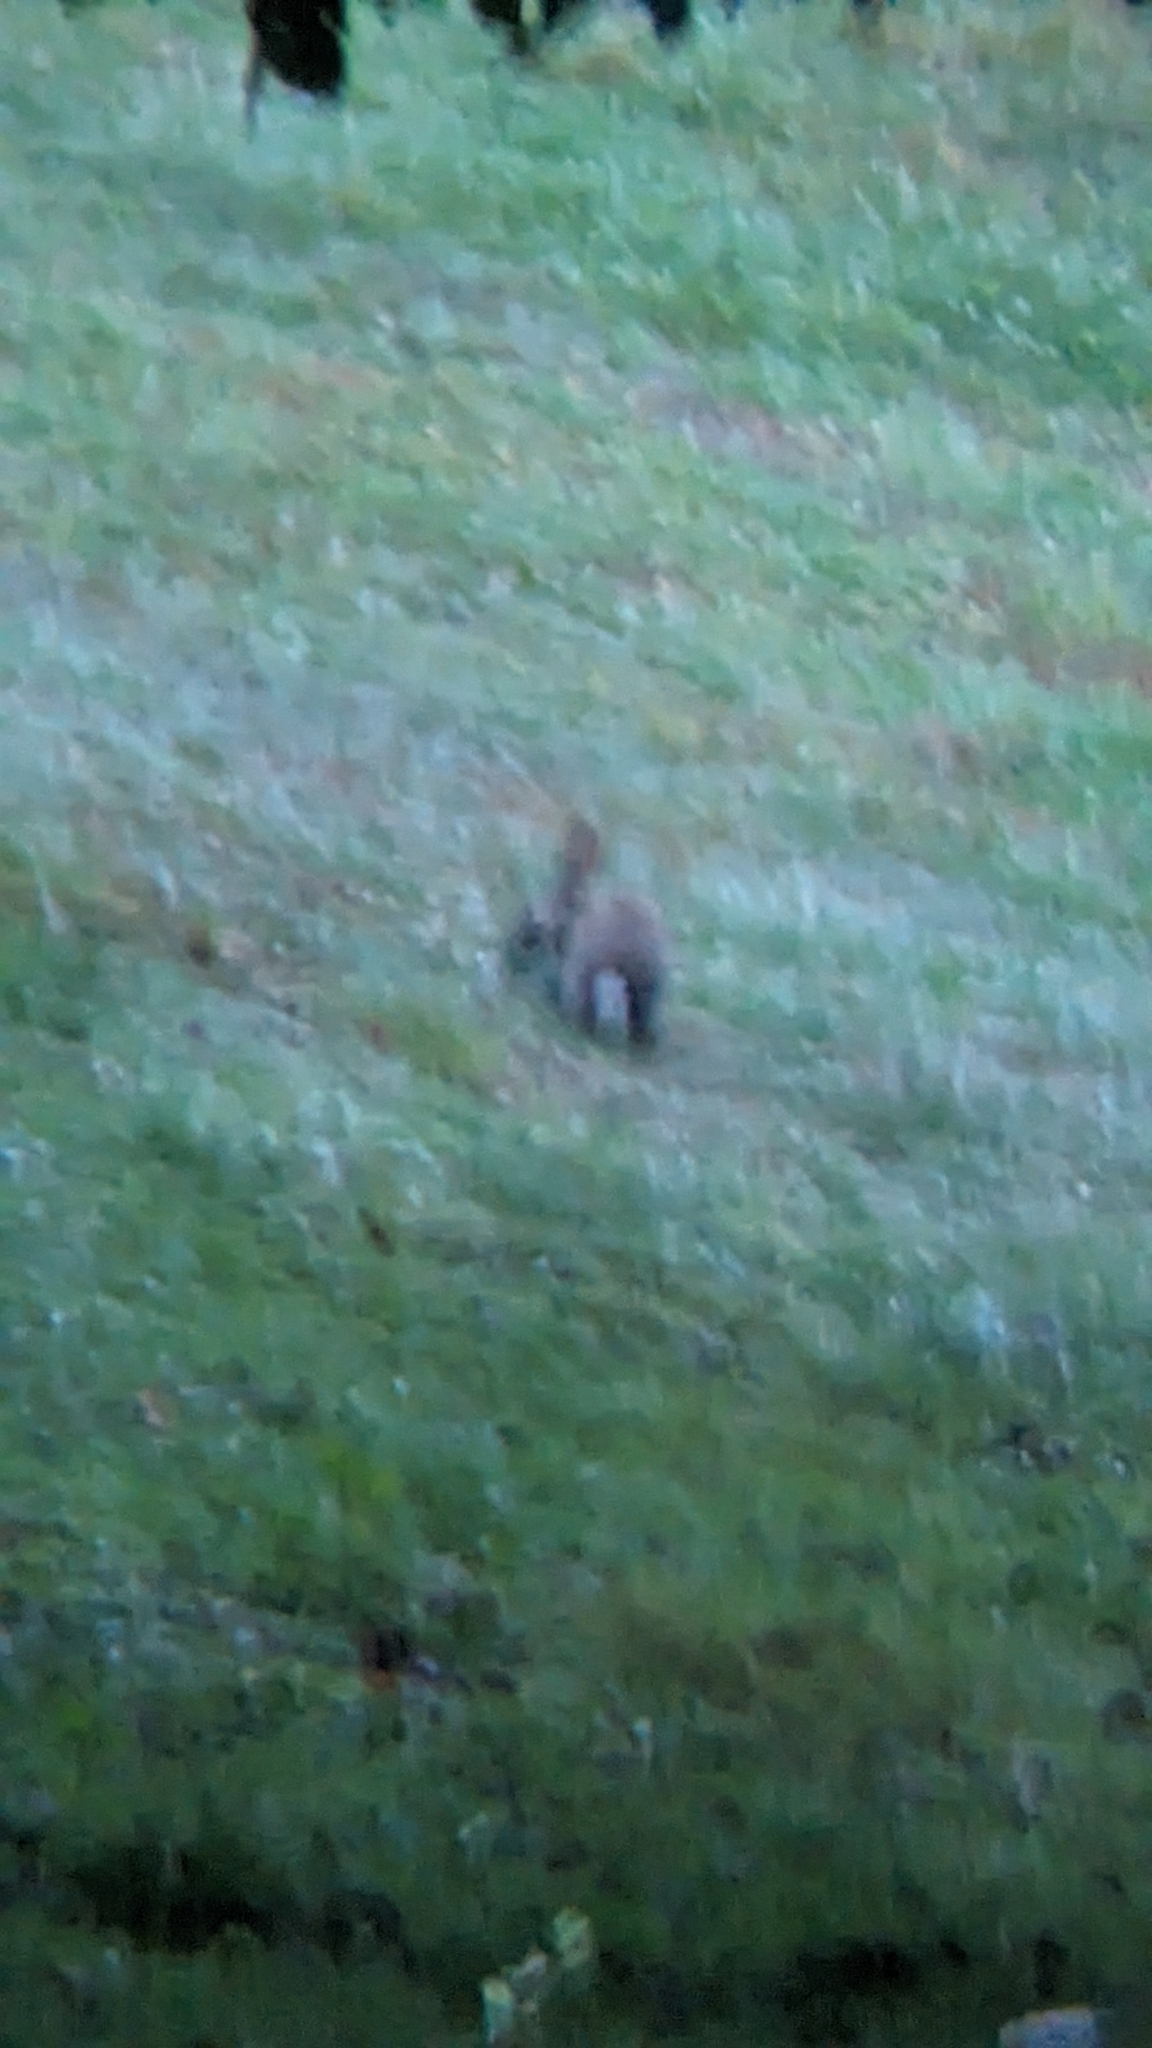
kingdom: Animalia
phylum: Chordata
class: Mammalia
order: Lagomorpha
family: Leporidae
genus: Oryctolagus
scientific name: Oryctolagus cuniculus
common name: European rabbit
